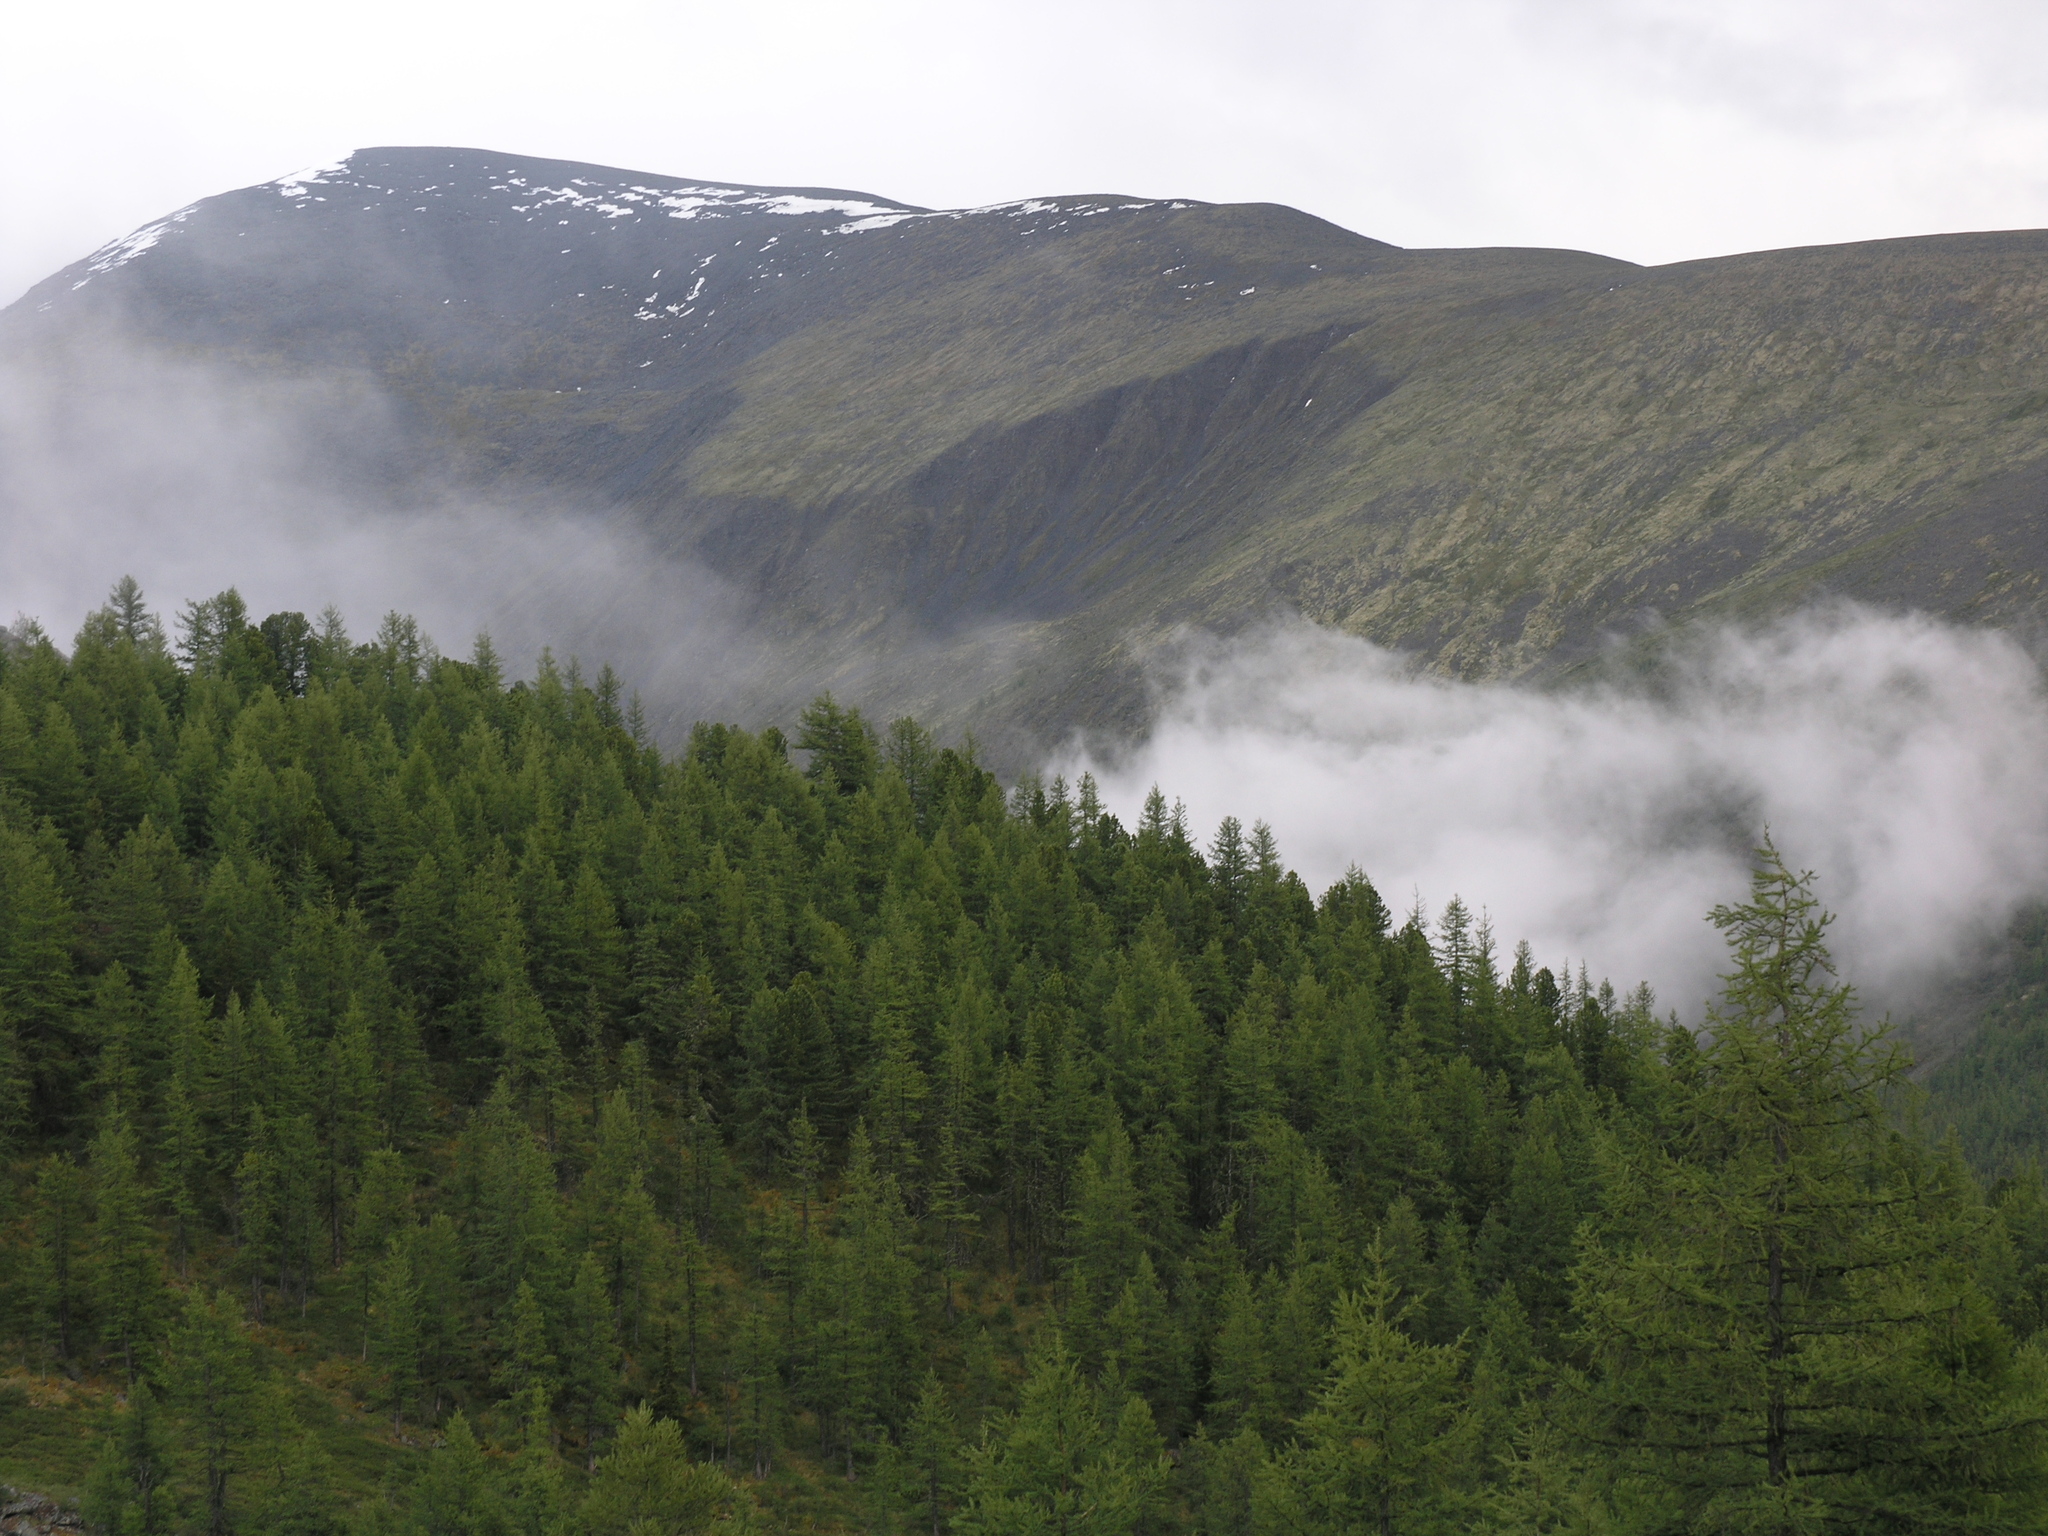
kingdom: Plantae
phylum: Tracheophyta
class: Pinopsida
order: Pinales
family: Pinaceae
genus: Larix
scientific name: Larix sibirica
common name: Siberian larch
